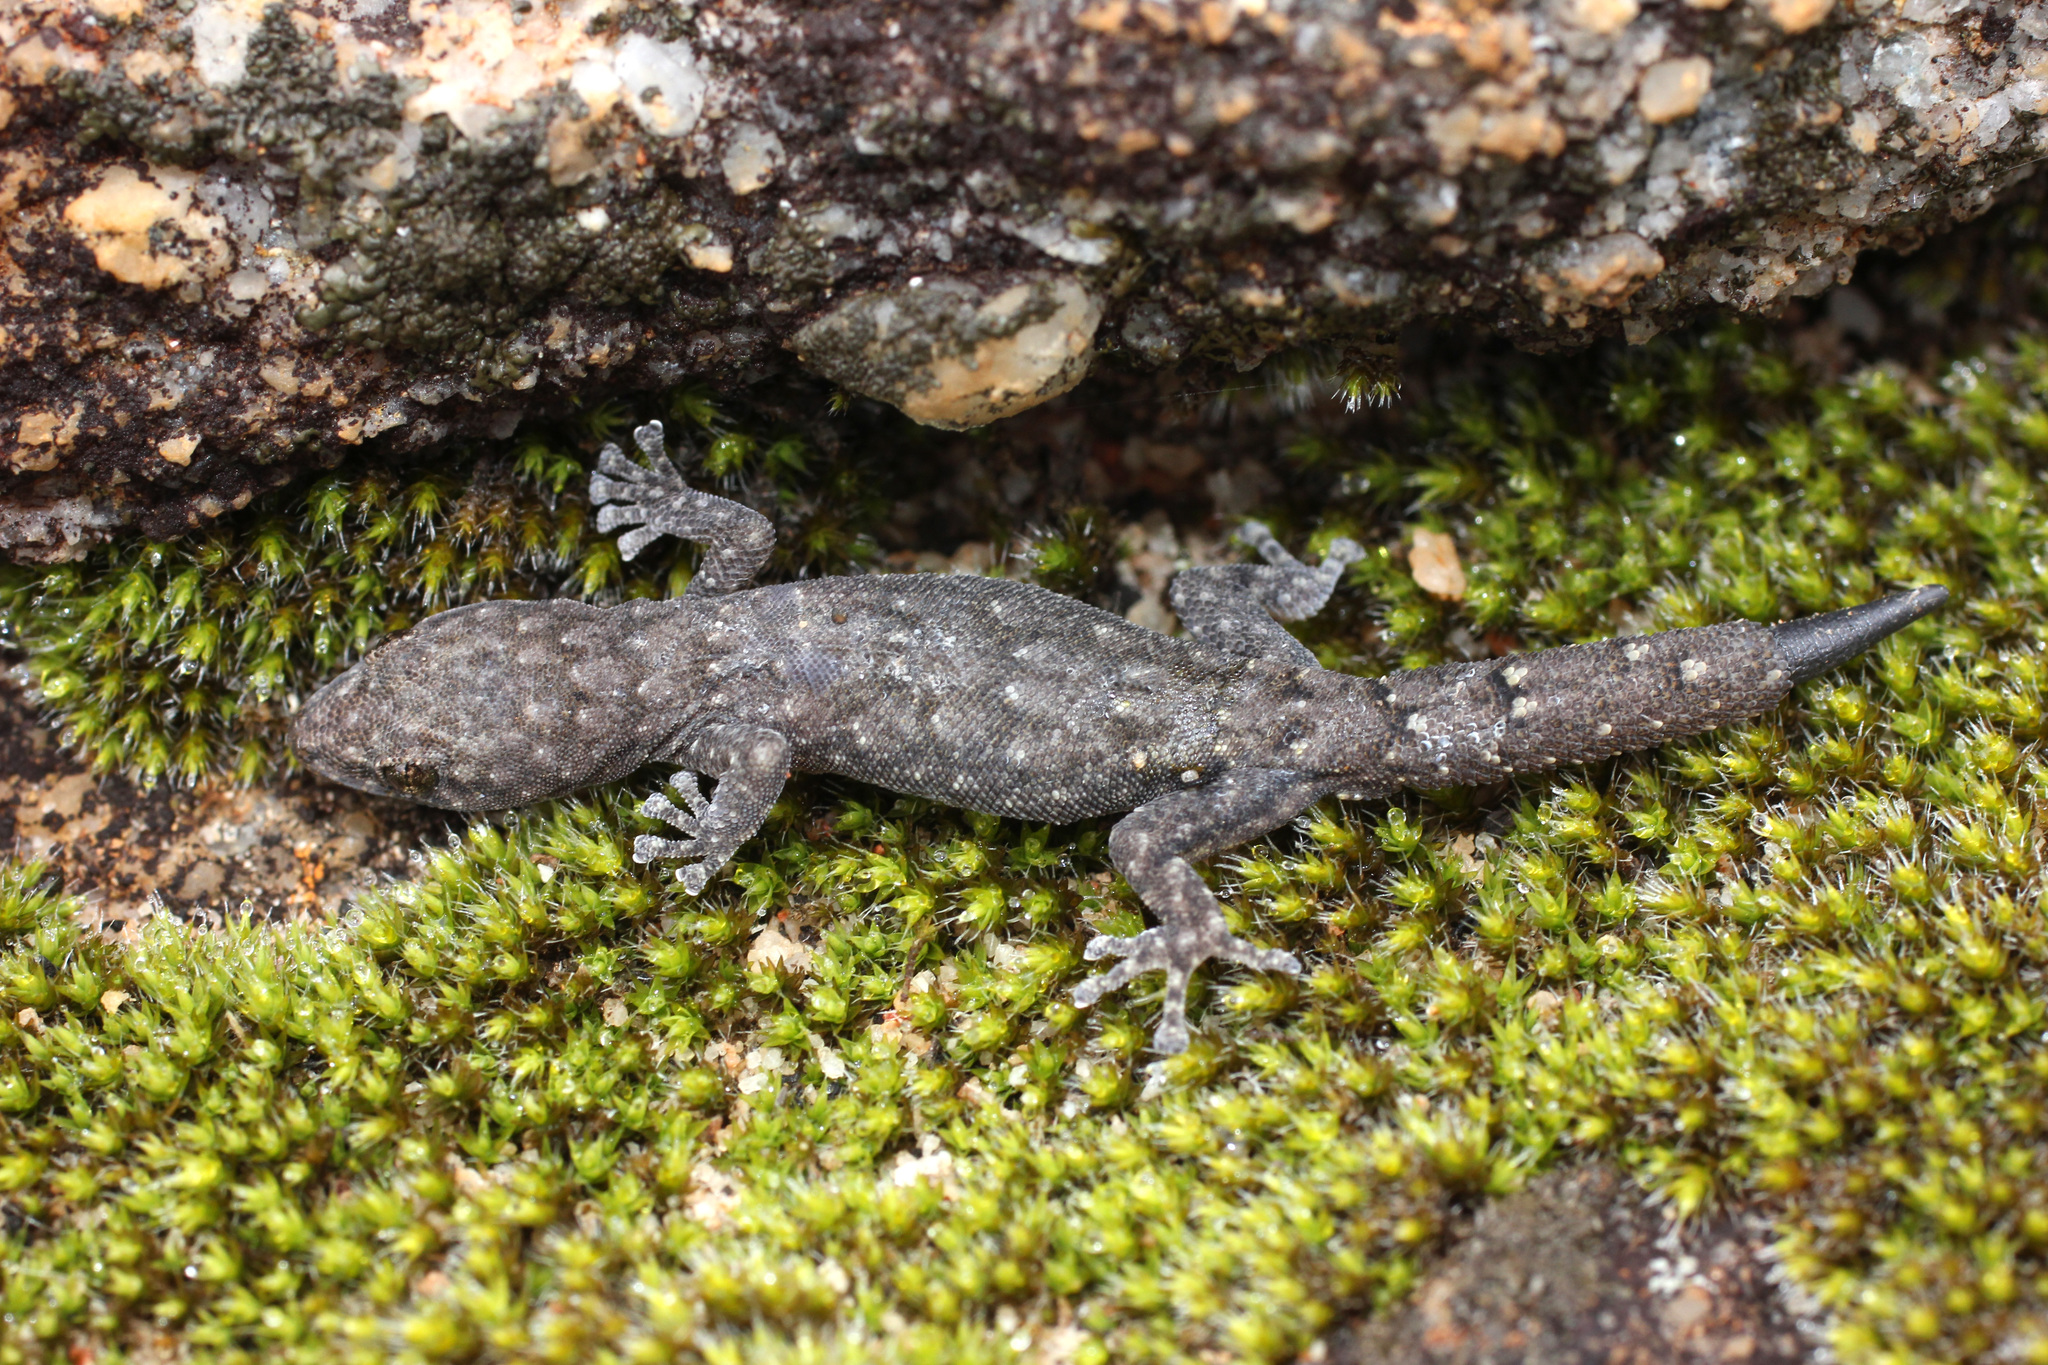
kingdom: Animalia
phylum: Chordata
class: Squamata
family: Gekkonidae
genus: Goggia
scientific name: Goggia hexapora
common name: Cedarberg dwarf leaf-toed gecko
